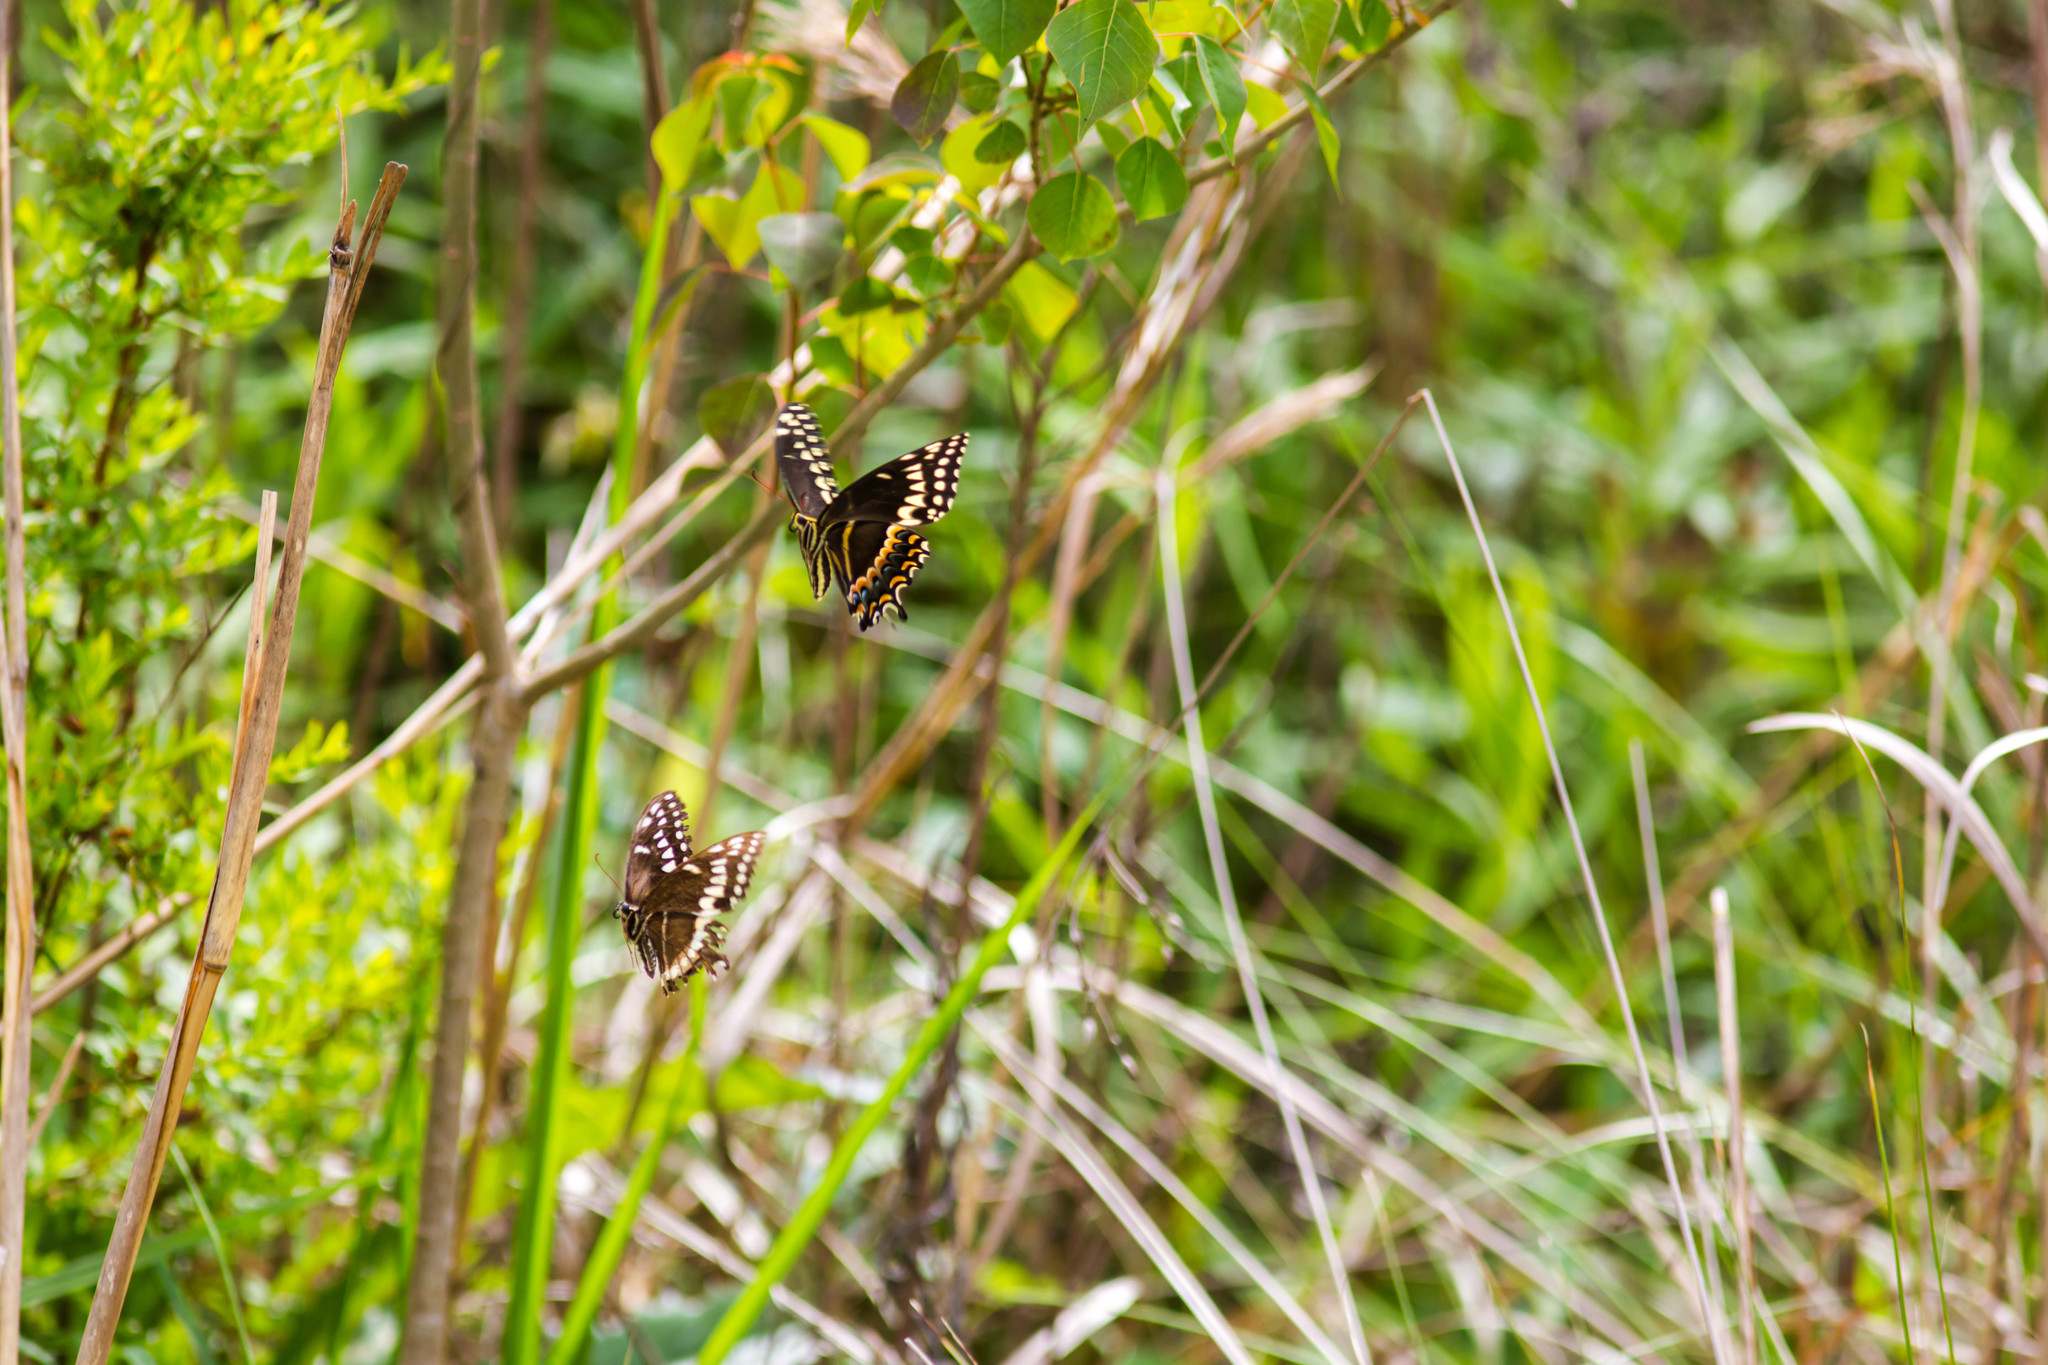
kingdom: Animalia
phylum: Arthropoda
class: Insecta
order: Lepidoptera
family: Papilionidae
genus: Papilio
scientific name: Papilio palamedes
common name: Palamedes swallowtail
